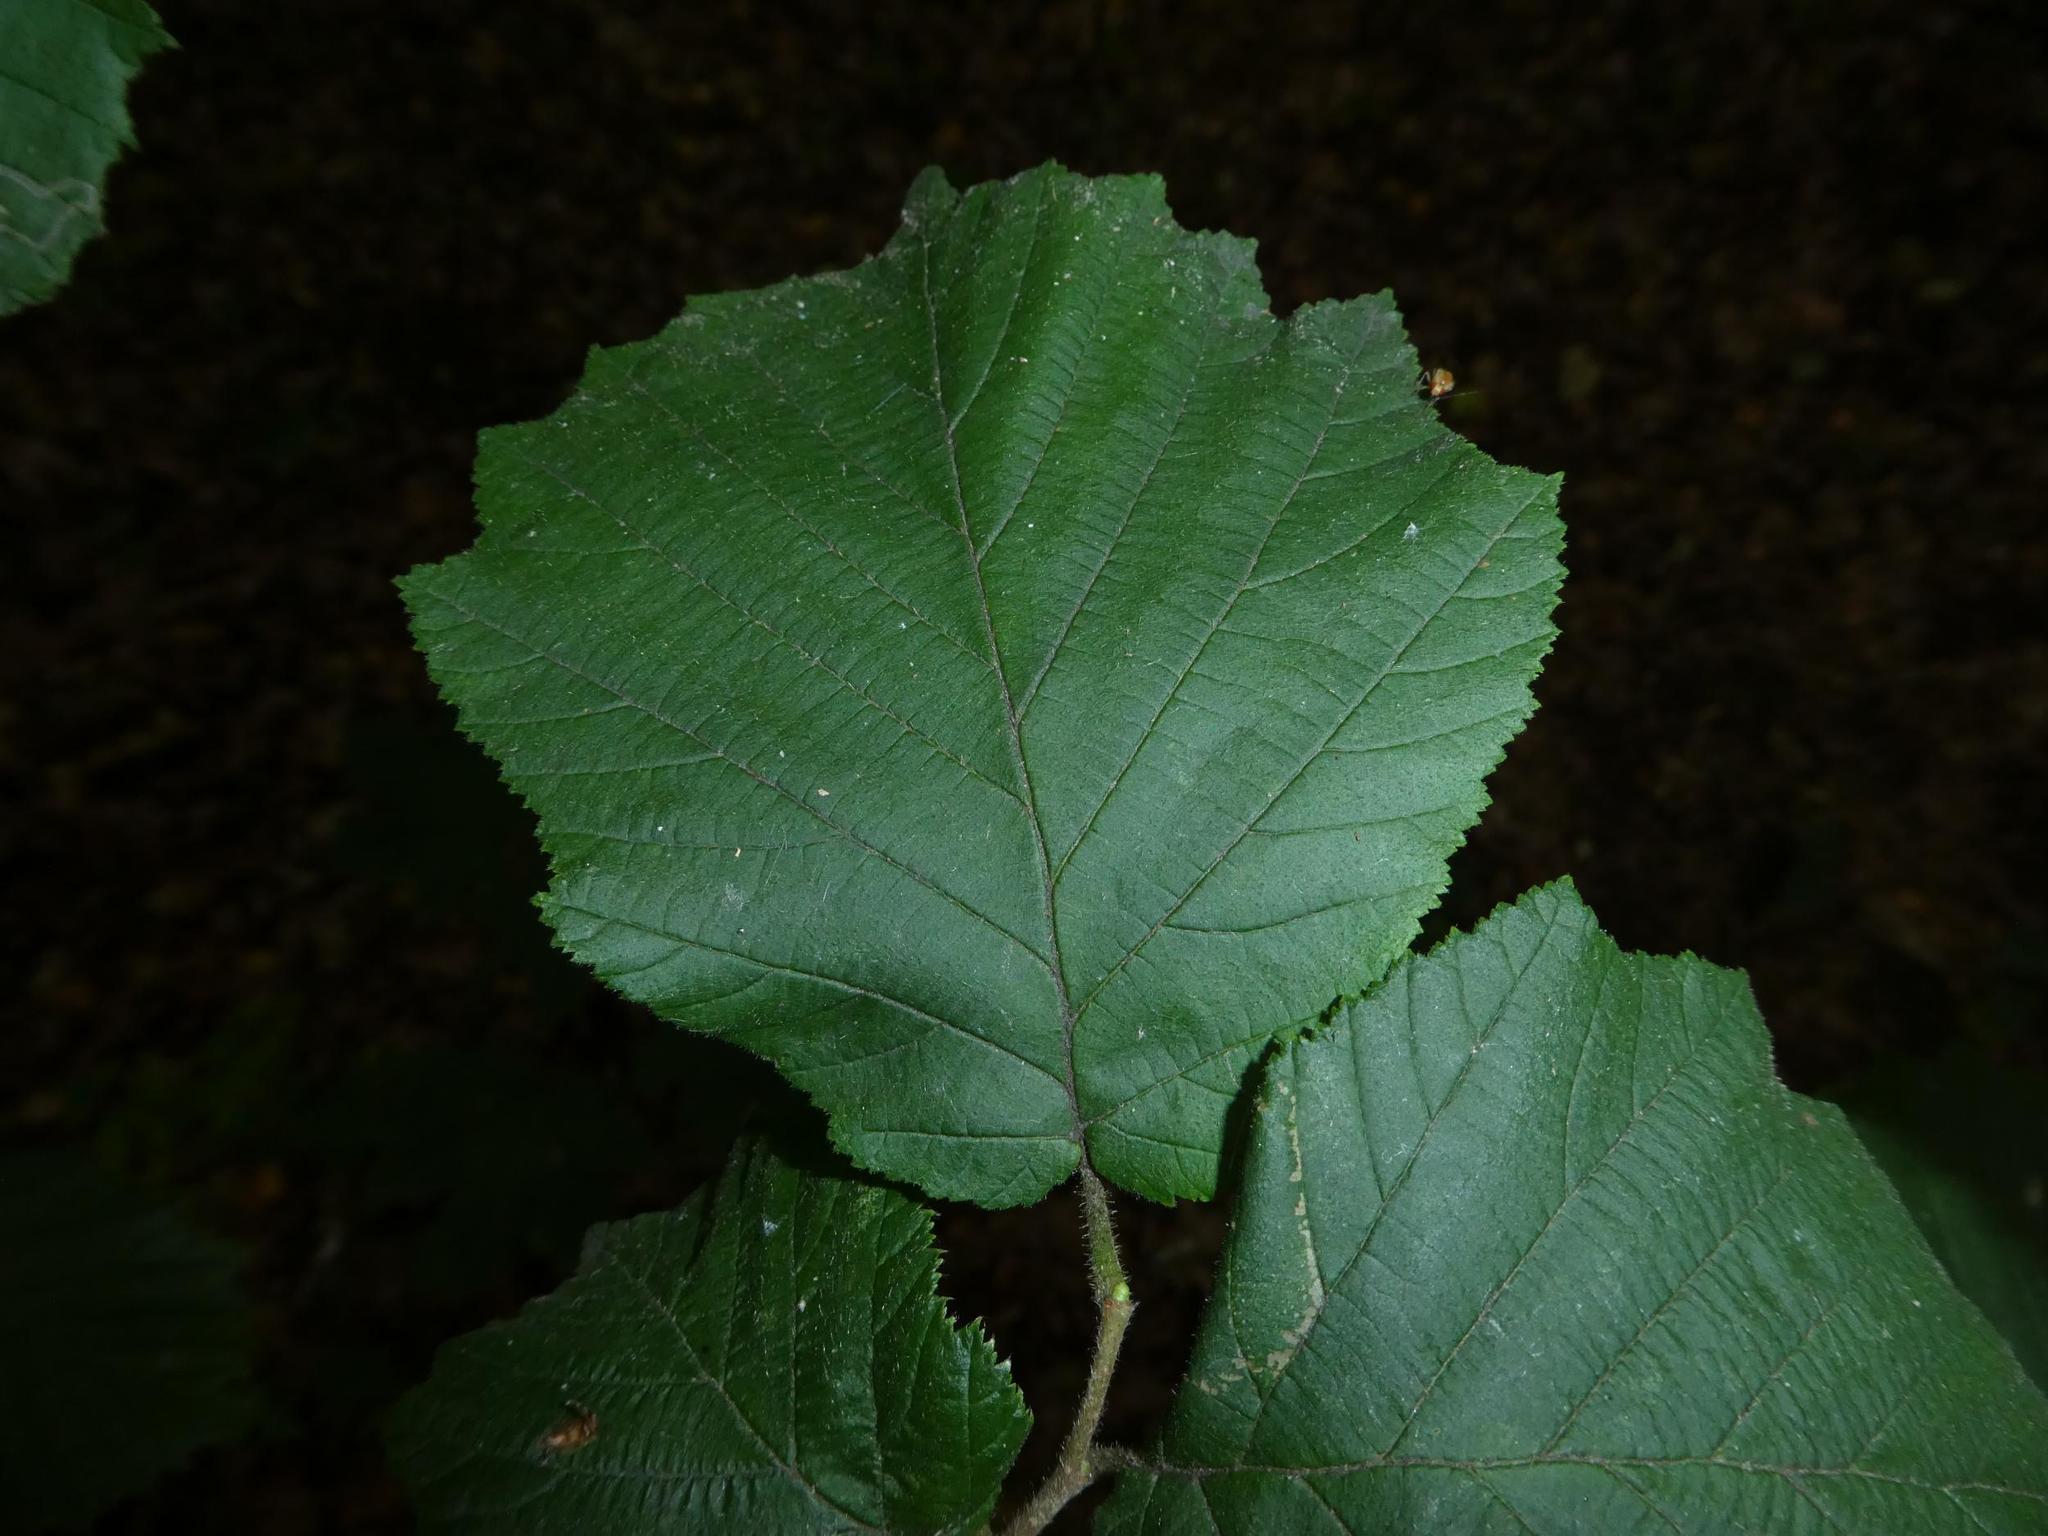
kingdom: Plantae
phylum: Tracheophyta
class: Magnoliopsida
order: Fagales
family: Betulaceae
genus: Corylus
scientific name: Corylus avellana
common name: European hazel
